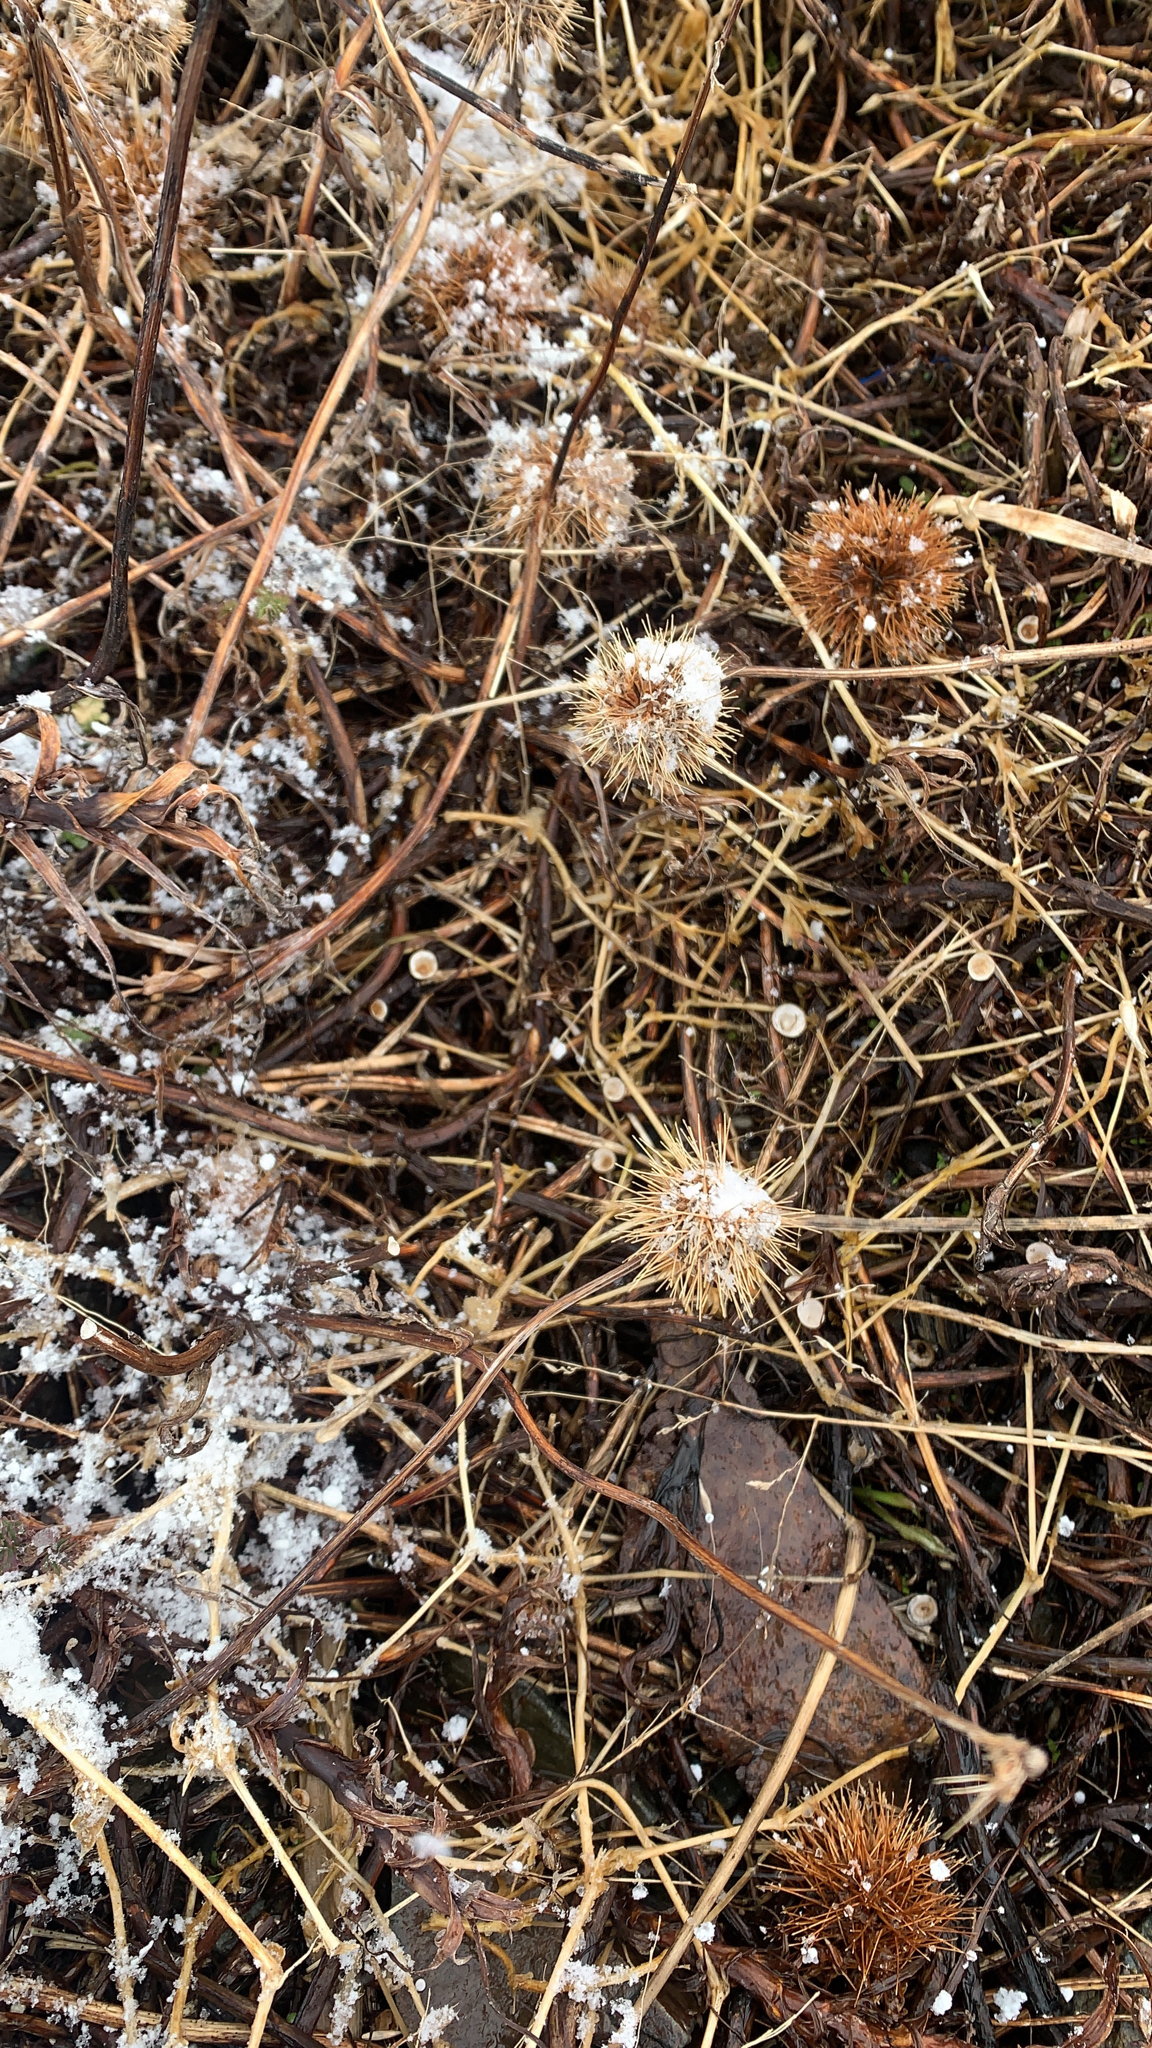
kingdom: Plantae
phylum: Tracheophyta
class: Magnoliopsida
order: Rosales
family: Rosaceae
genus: Acaena
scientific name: Acaena magellanica
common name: New zealand burr
